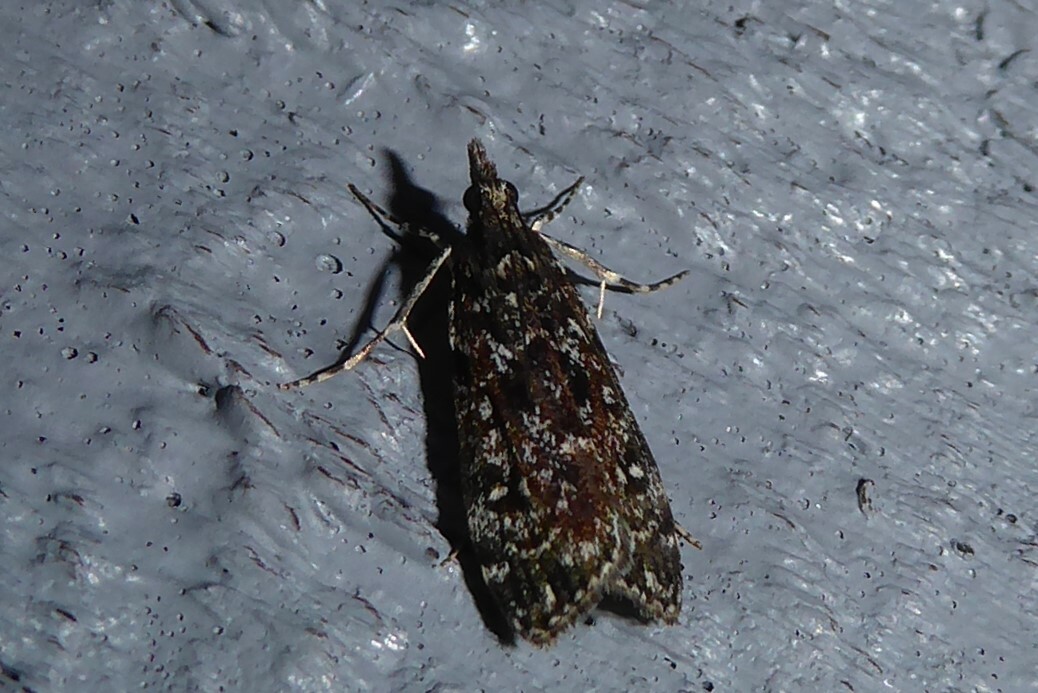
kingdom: Animalia
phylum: Arthropoda
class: Insecta
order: Lepidoptera
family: Crambidae
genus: Eudonia
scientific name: Eudonia philerga
